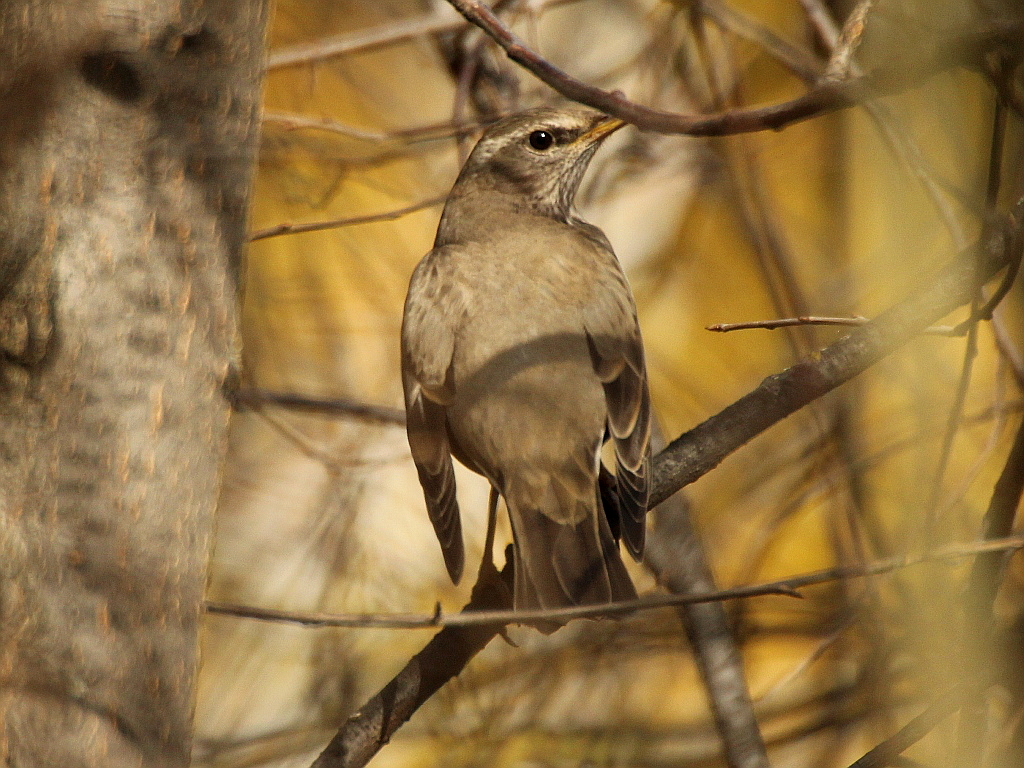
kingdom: Animalia
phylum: Chordata
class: Aves
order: Passeriformes
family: Turdidae
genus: Turdus
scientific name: Turdus atrogularis
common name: Black-throated thrush
